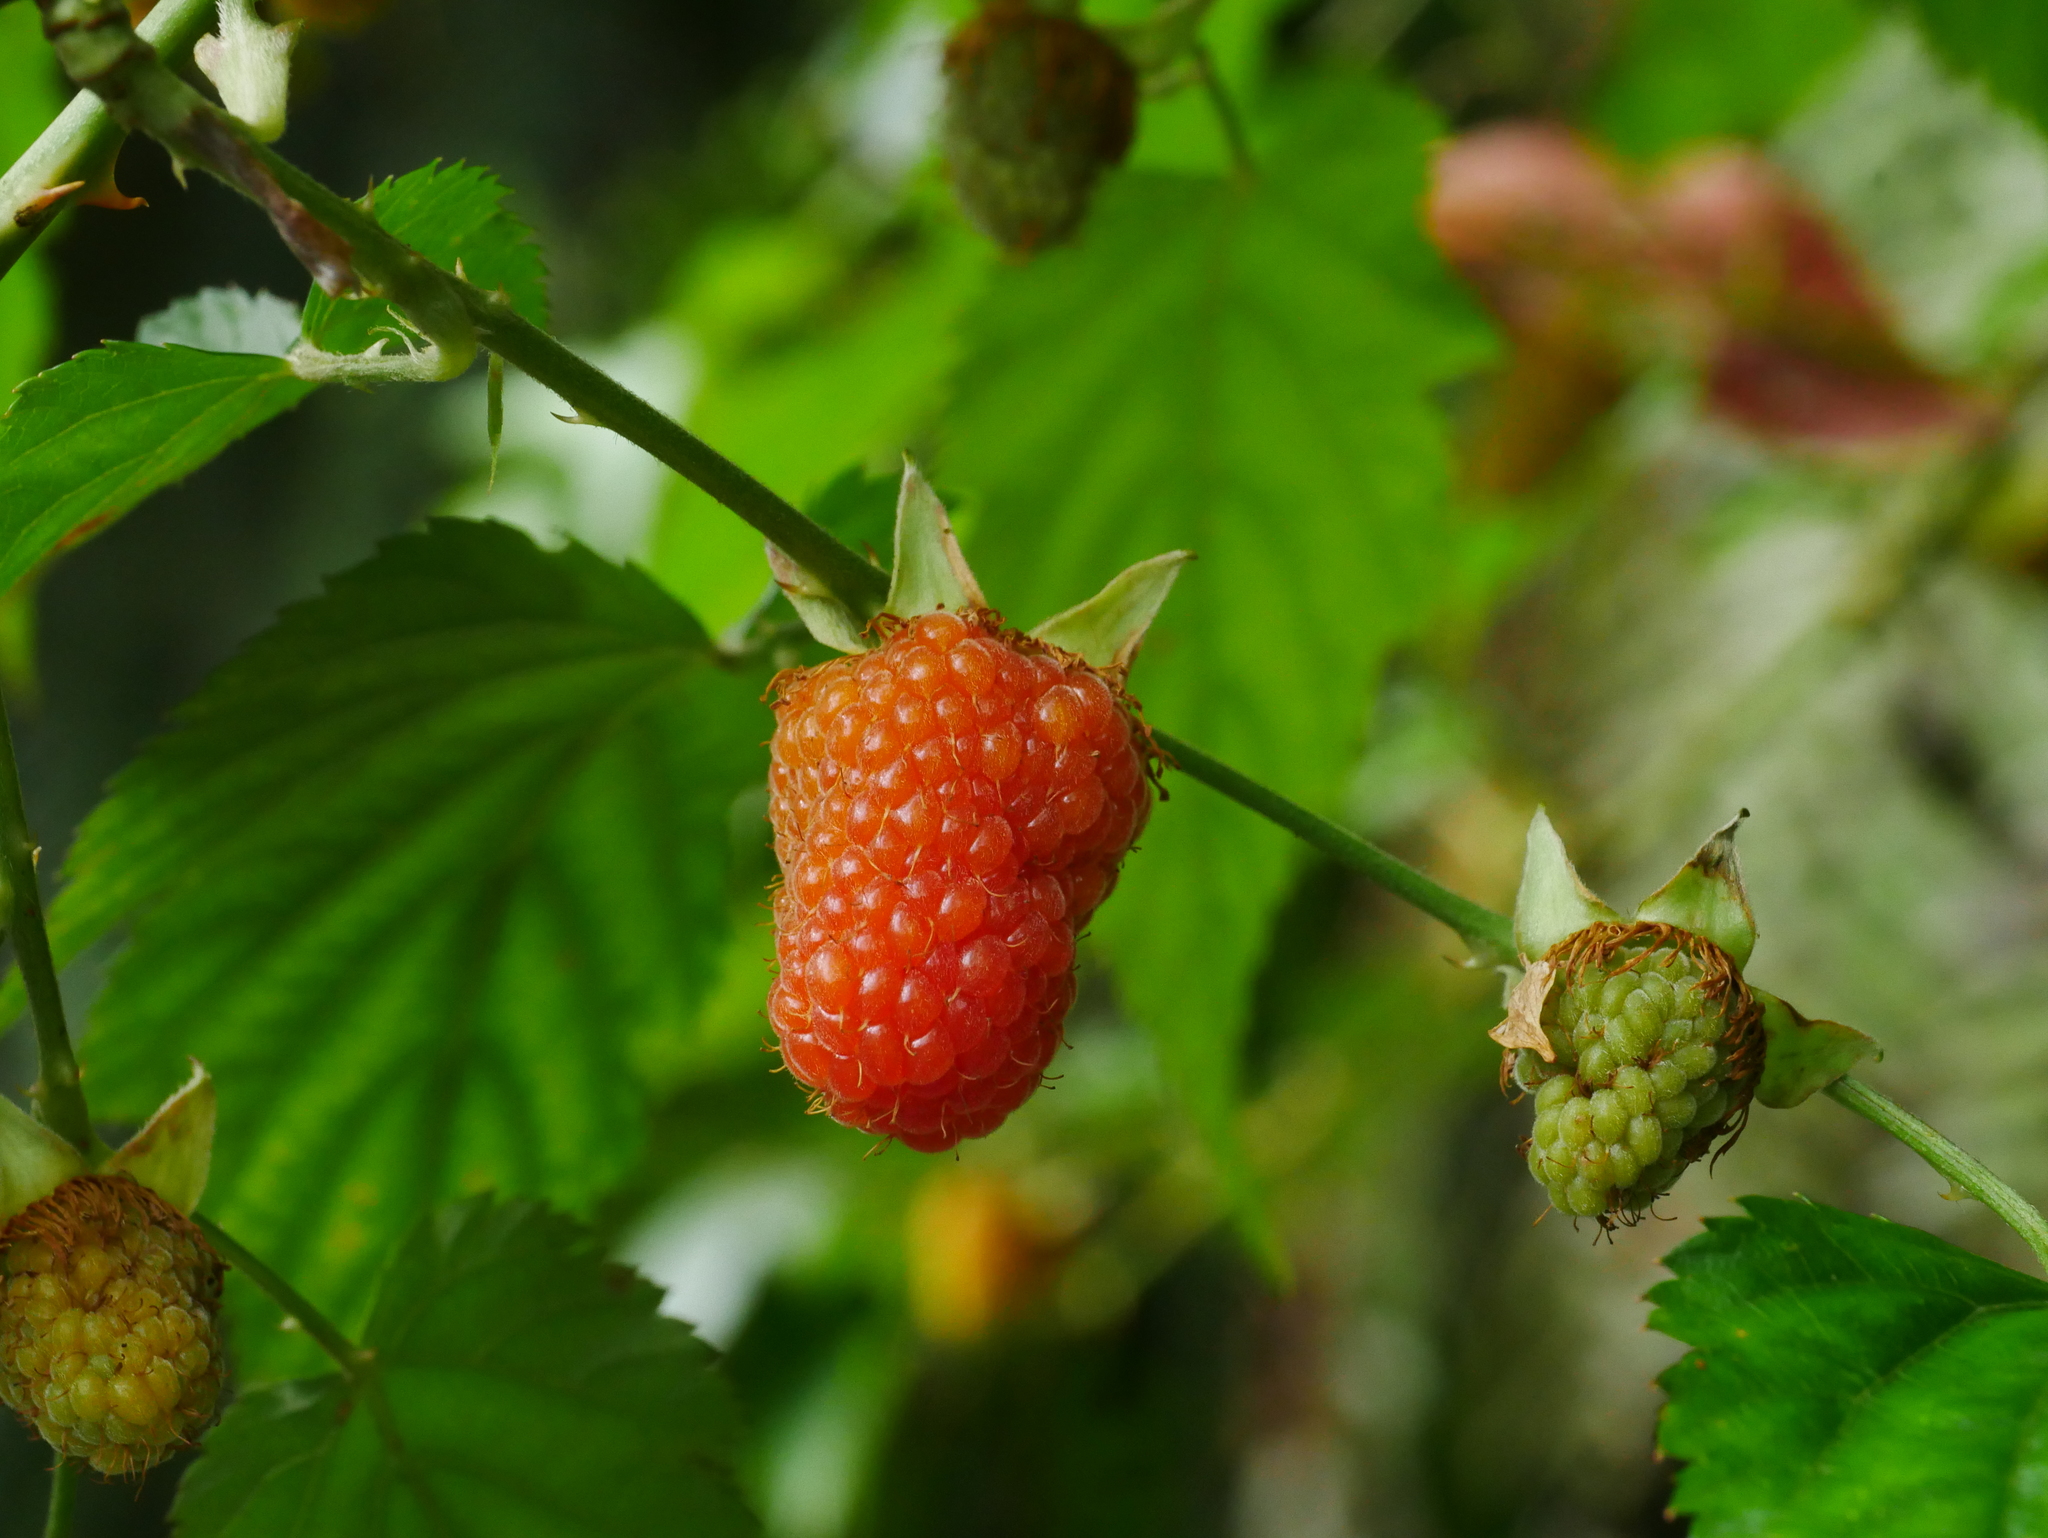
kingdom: Plantae
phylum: Tracheophyta
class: Magnoliopsida
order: Rosales
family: Rosaceae
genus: Rubus
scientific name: Rubus corchorifolius
